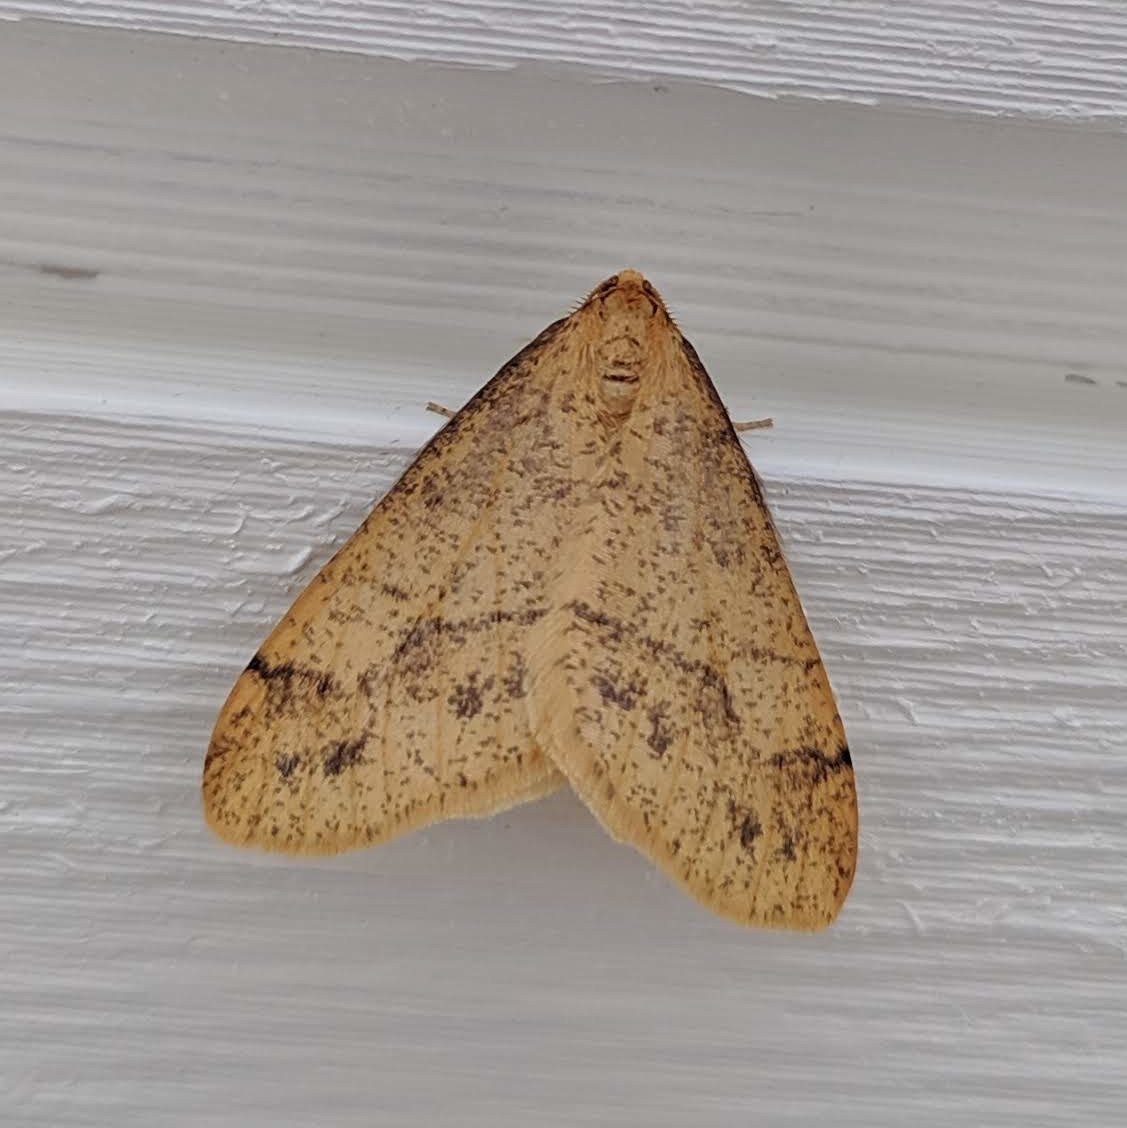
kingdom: Animalia
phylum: Arthropoda
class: Insecta
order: Lepidoptera
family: Geometridae
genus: Agriopis
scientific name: Agriopis aurantiaria
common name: Scarce umber
